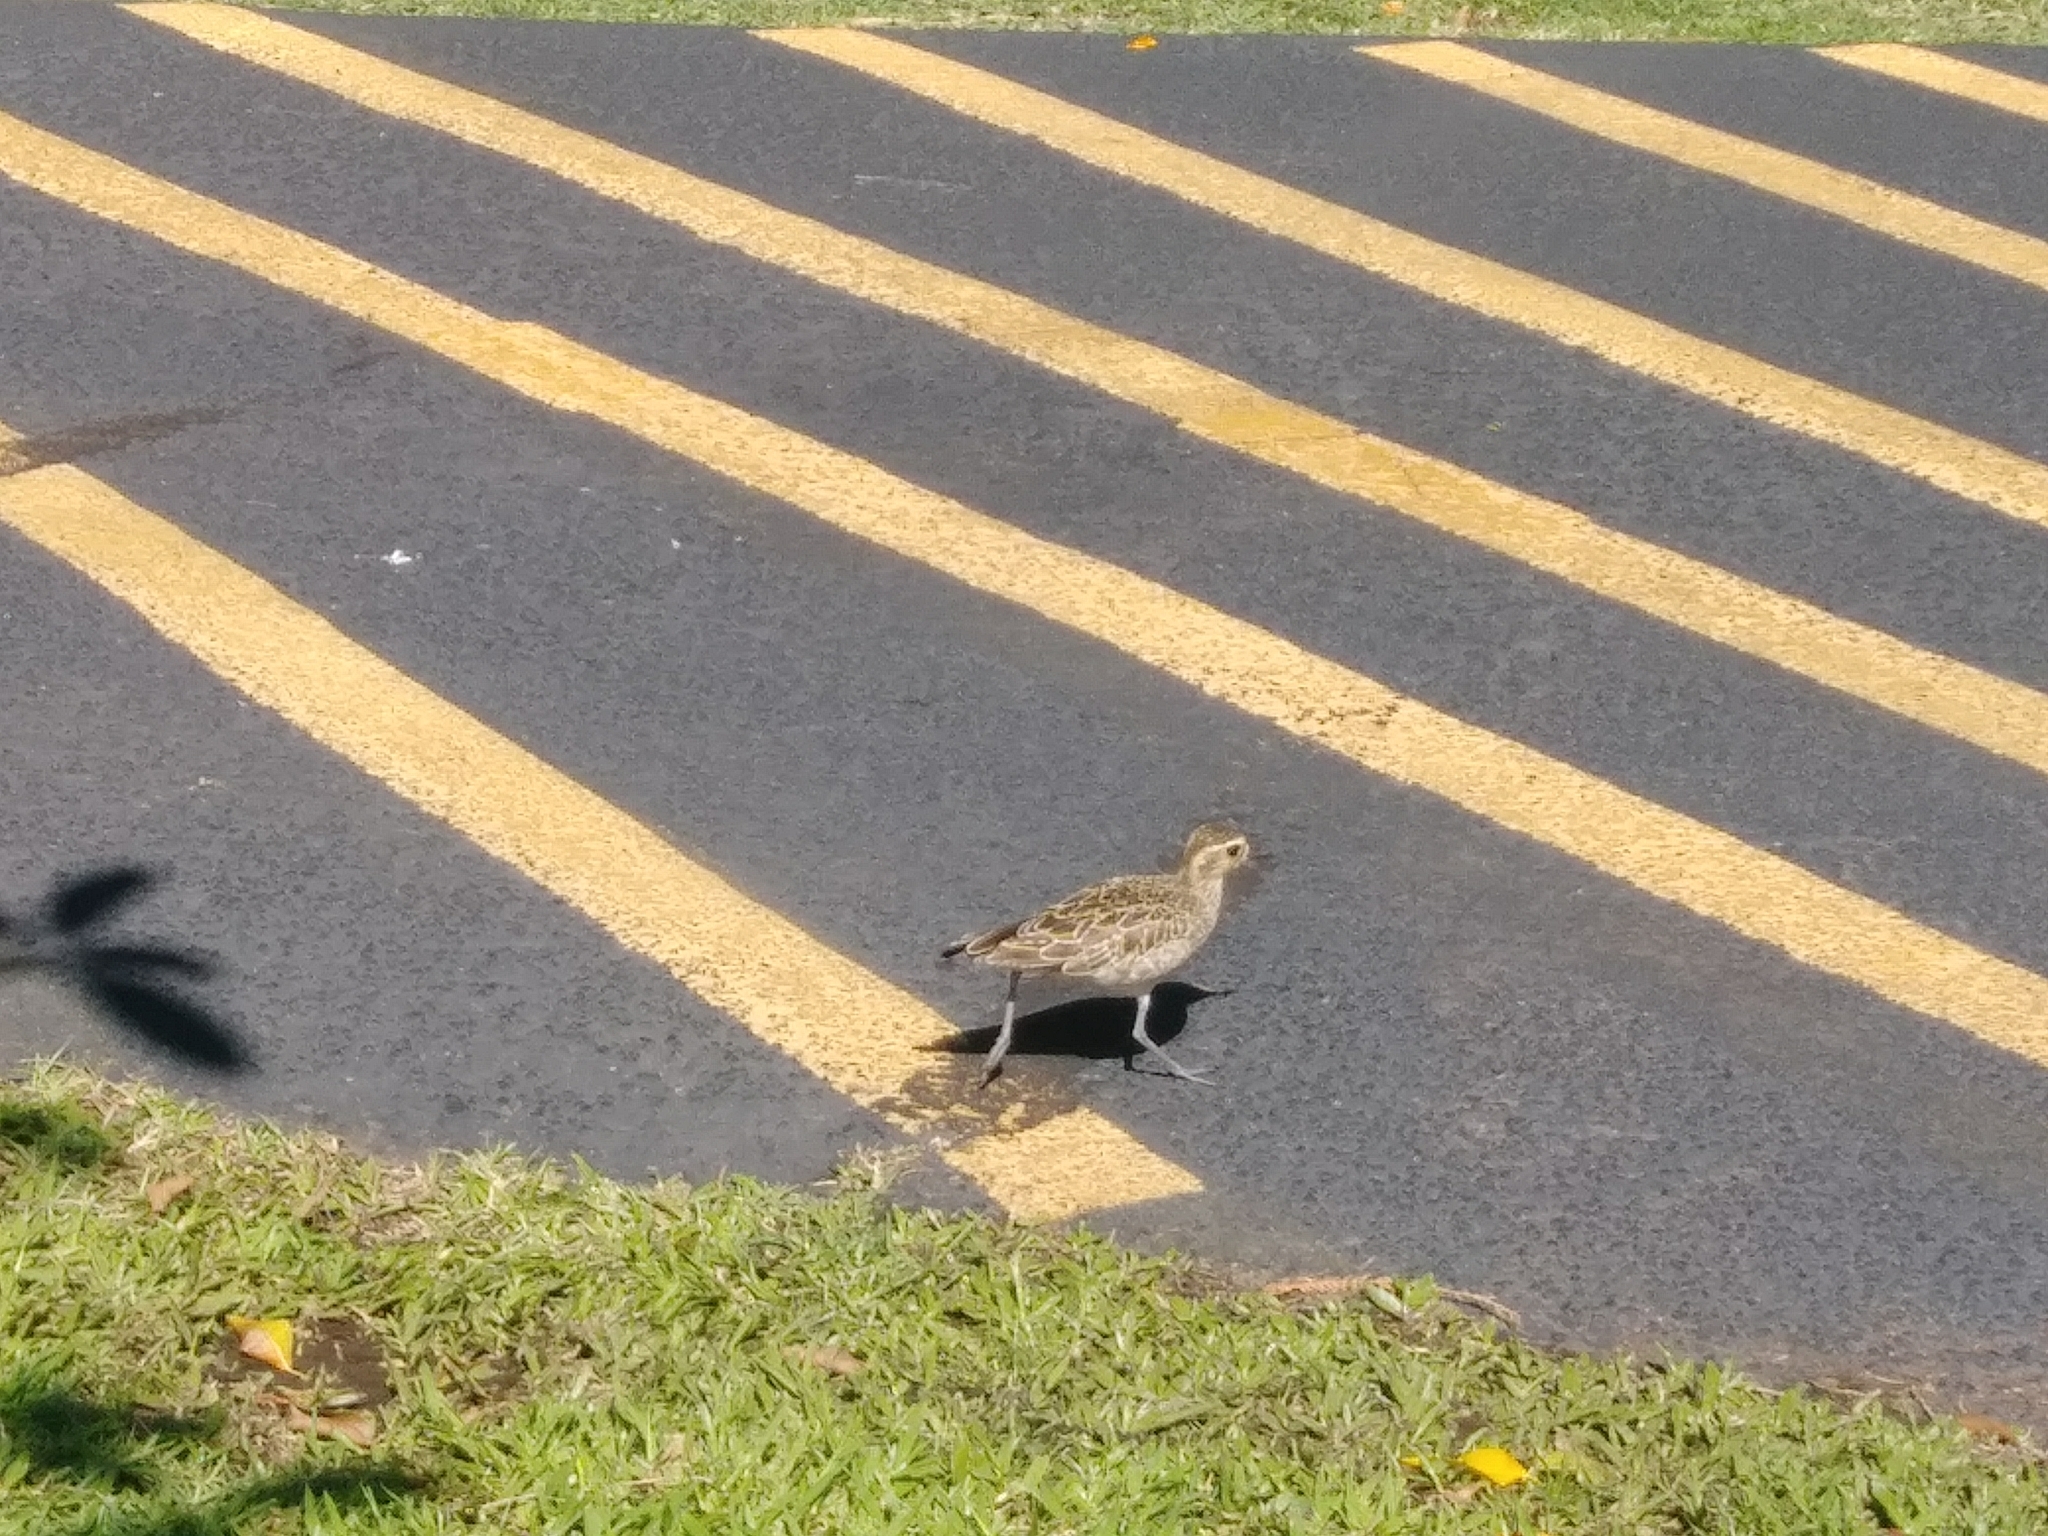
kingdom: Animalia
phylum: Chordata
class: Aves
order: Charadriiformes
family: Charadriidae
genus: Pluvialis
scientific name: Pluvialis fulva
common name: Pacific golden plover
